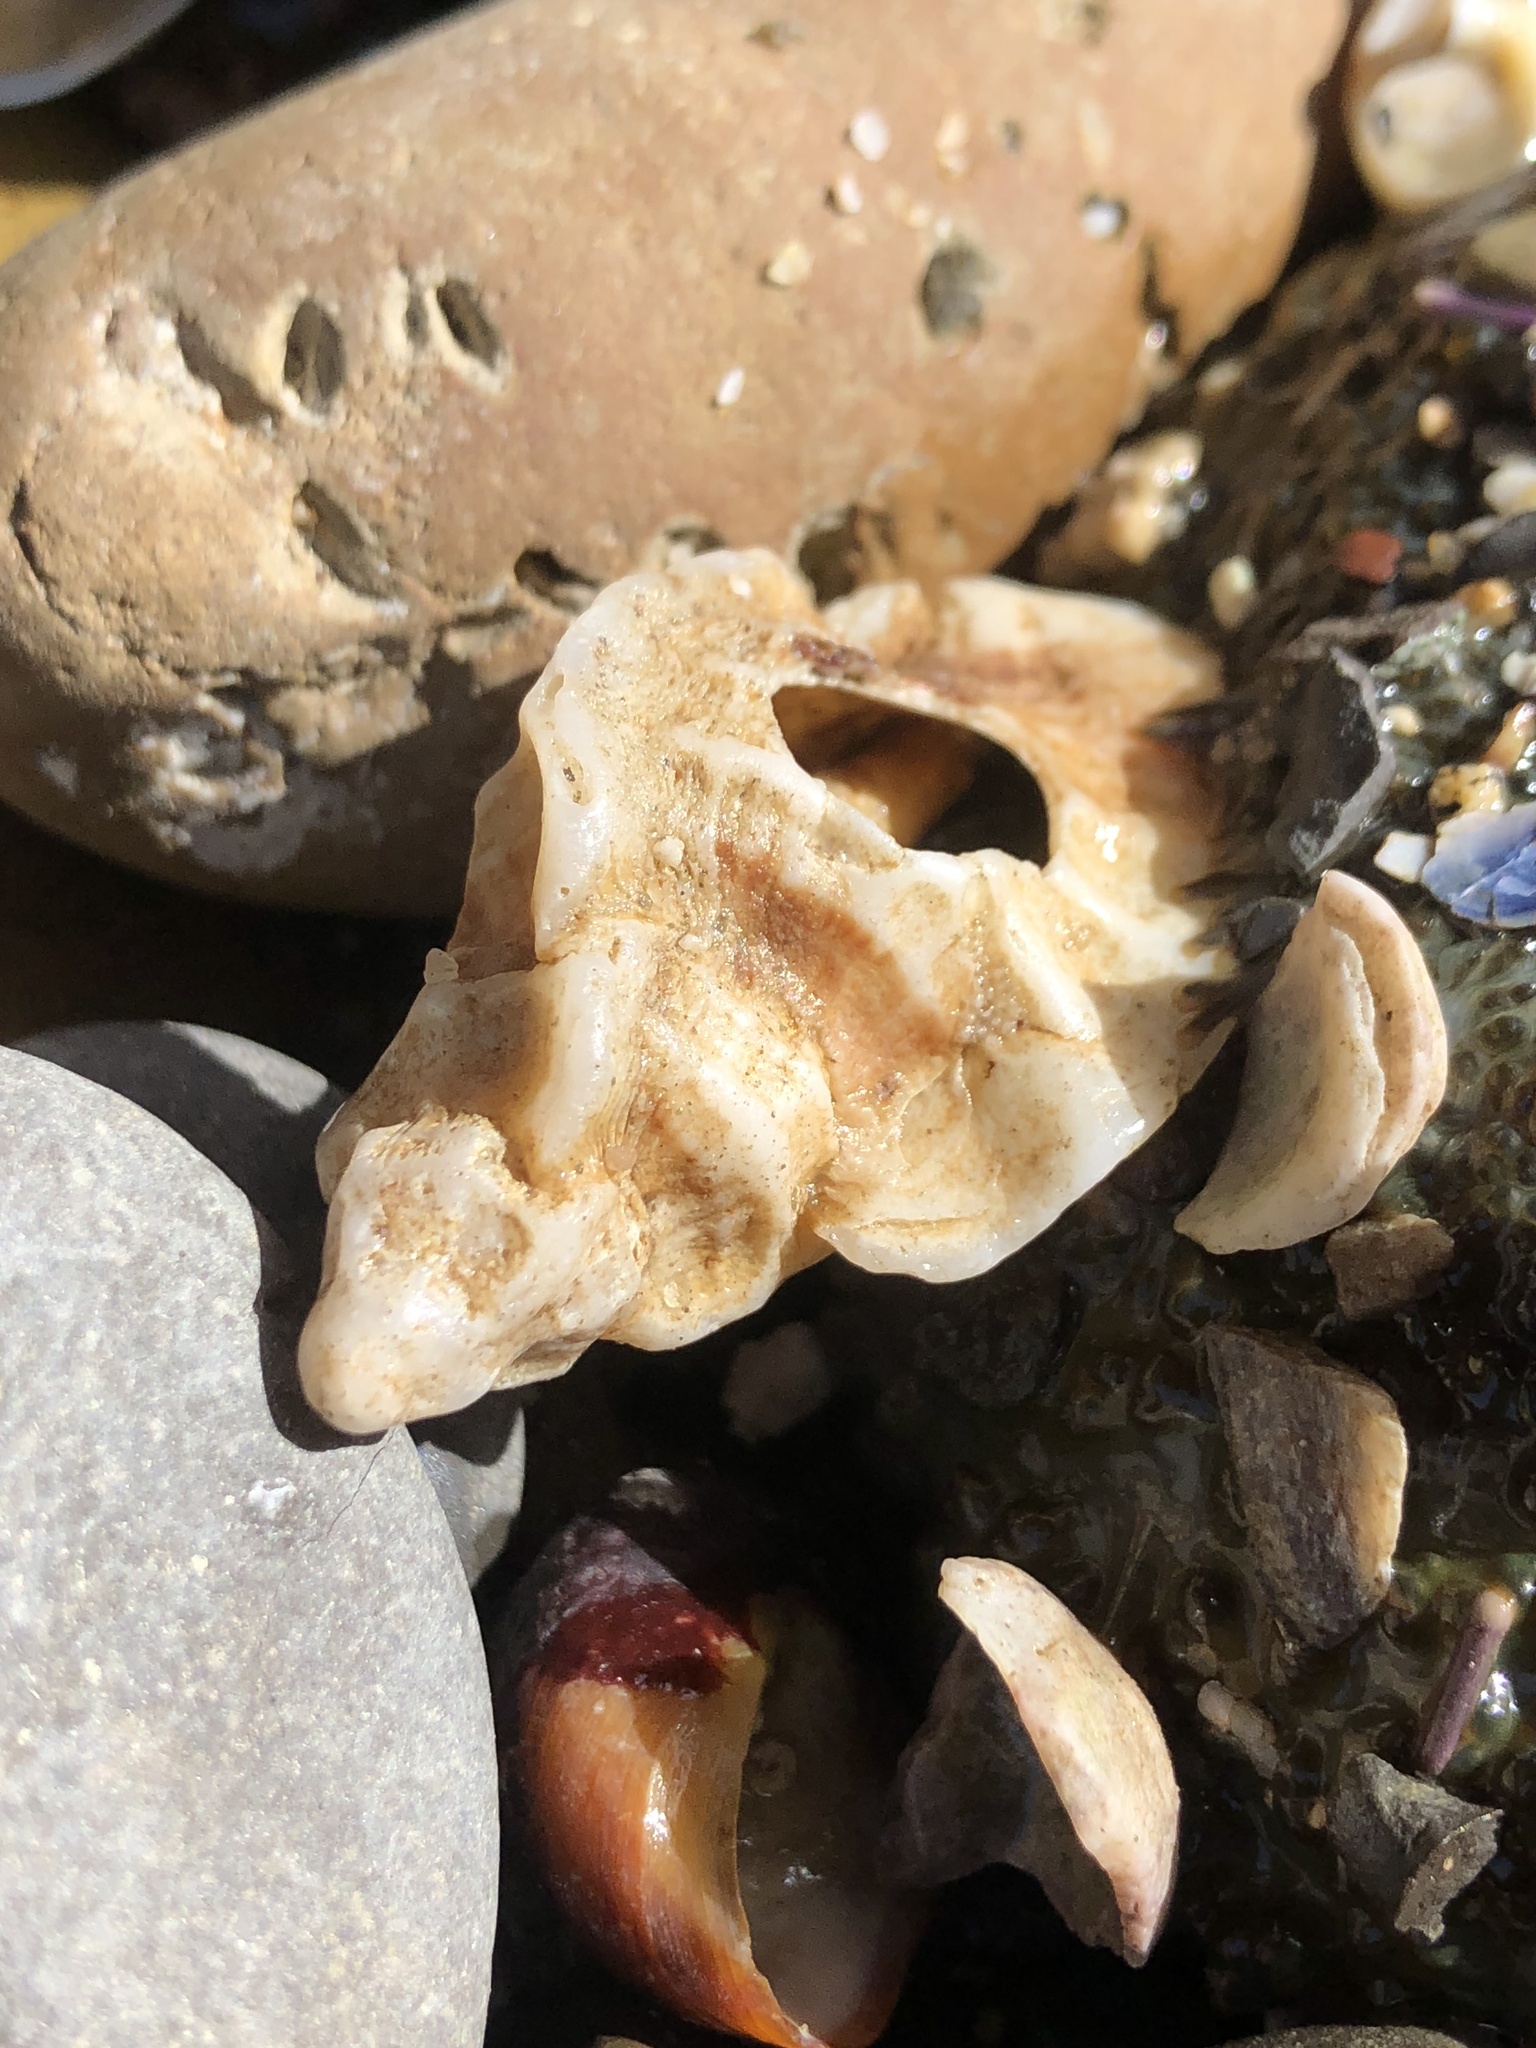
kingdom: Animalia
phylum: Mollusca
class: Gastropoda
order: Neogastropoda
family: Muricidae
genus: Ceratostoma
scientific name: Ceratostoma foliatum
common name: Foliate thorn purpura
